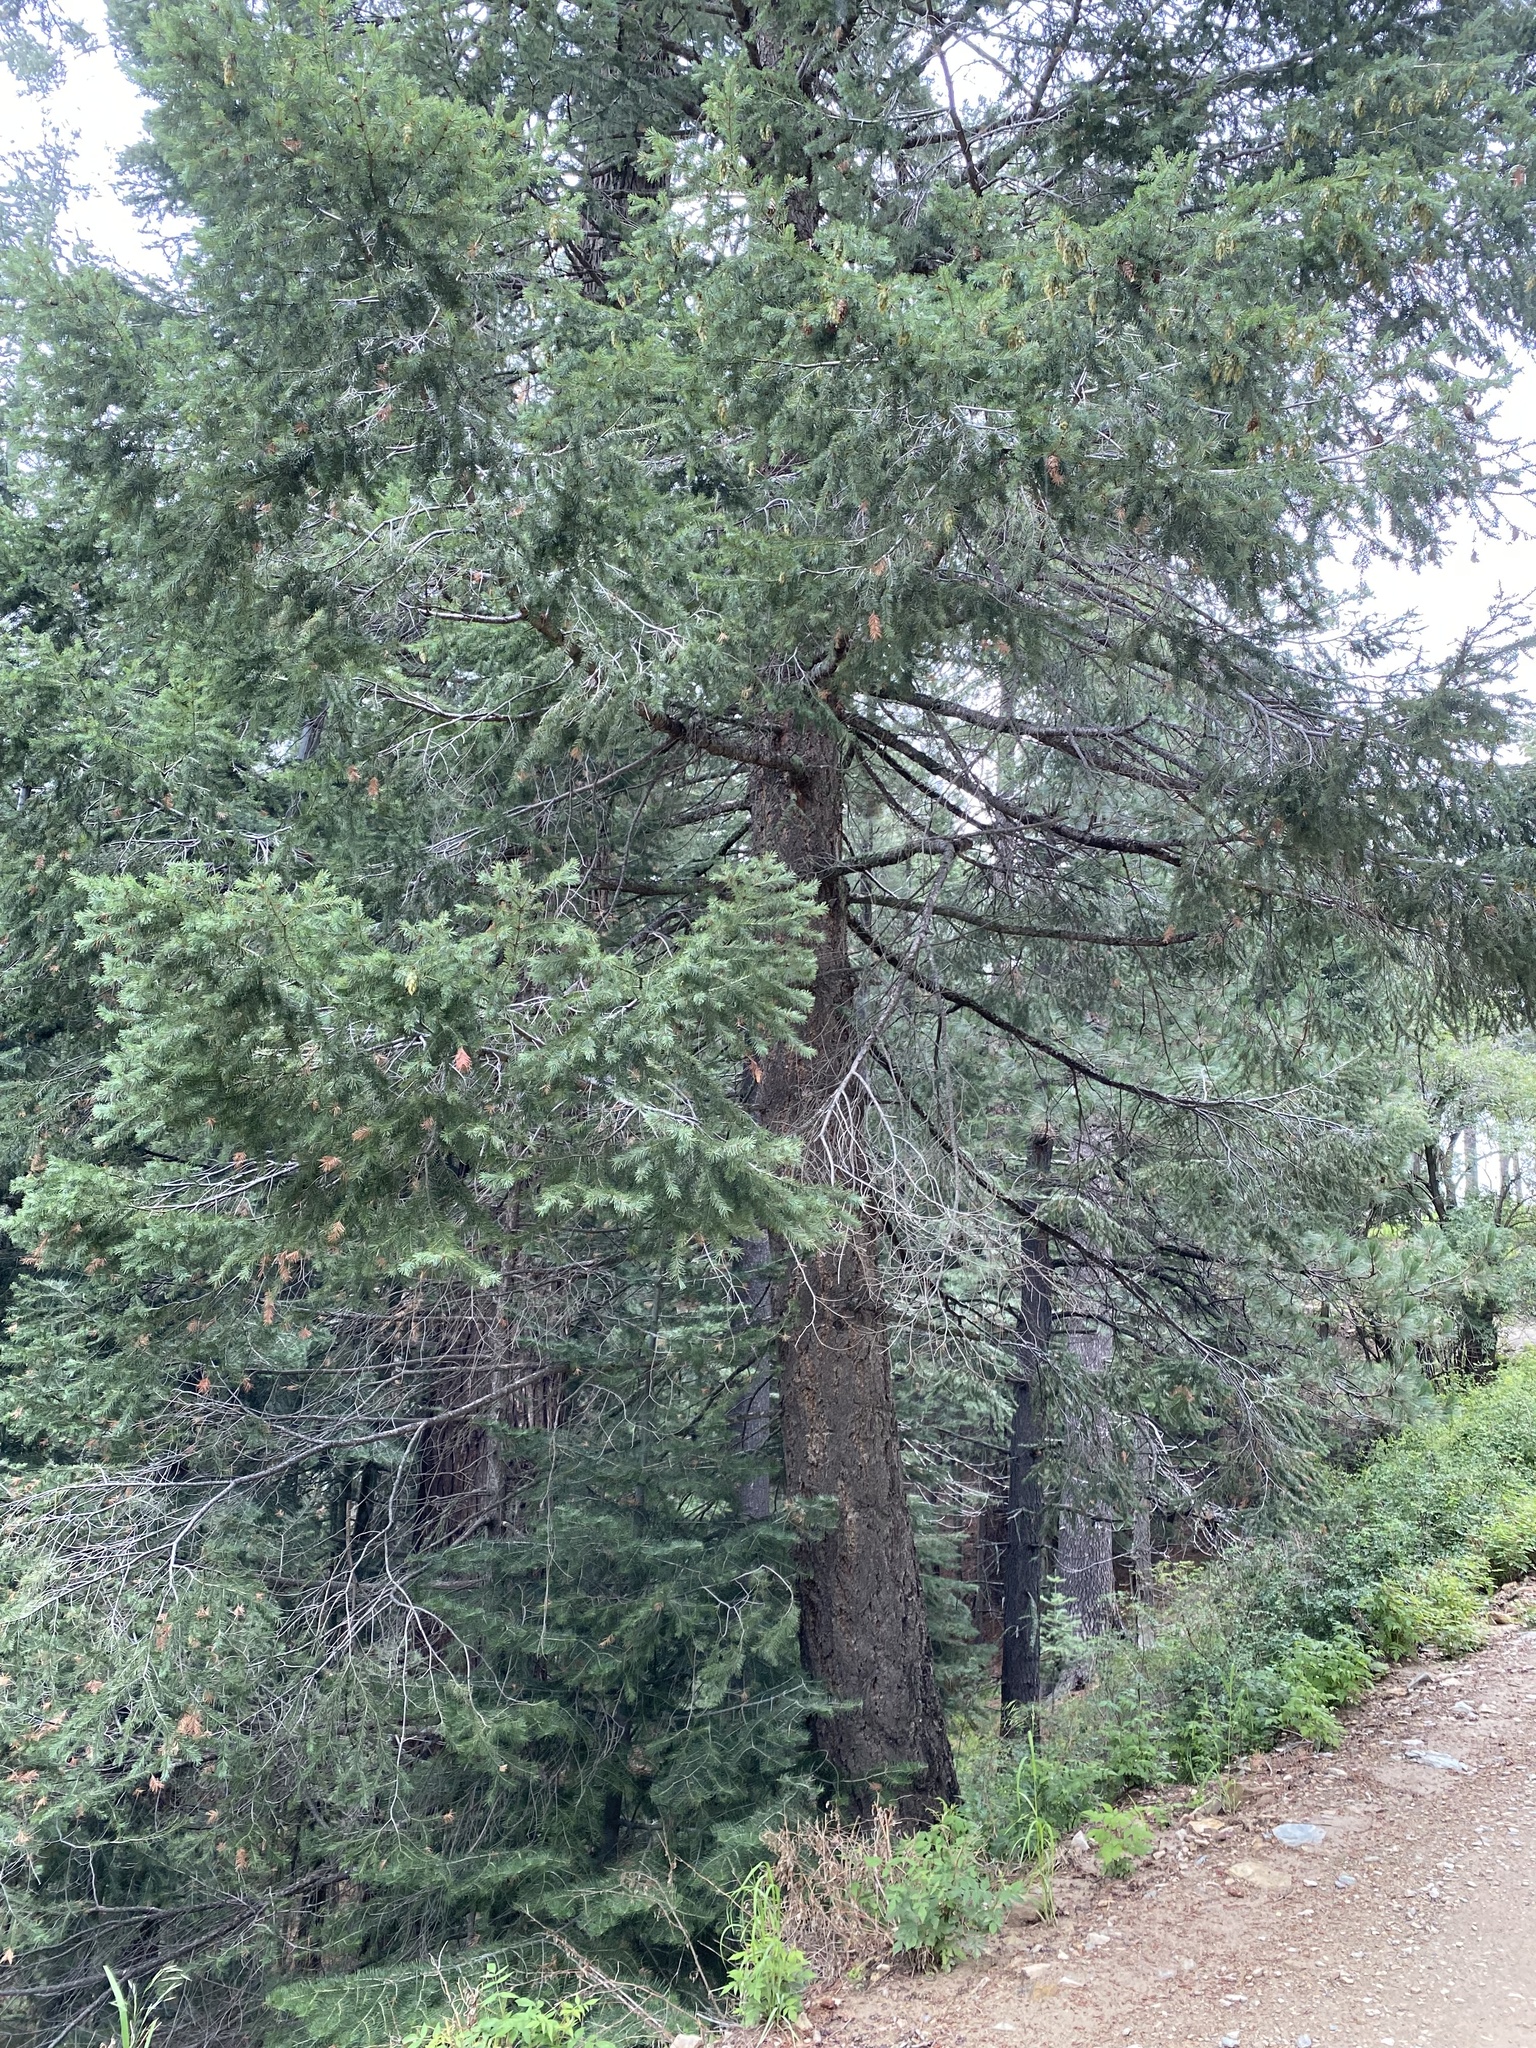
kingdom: Plantae
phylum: Tracheophyta
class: Pinopsida
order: Pinales
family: Pinaceae
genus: Pseudotsuga
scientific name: Pseudotsuga menziesii
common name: Douglas fir
